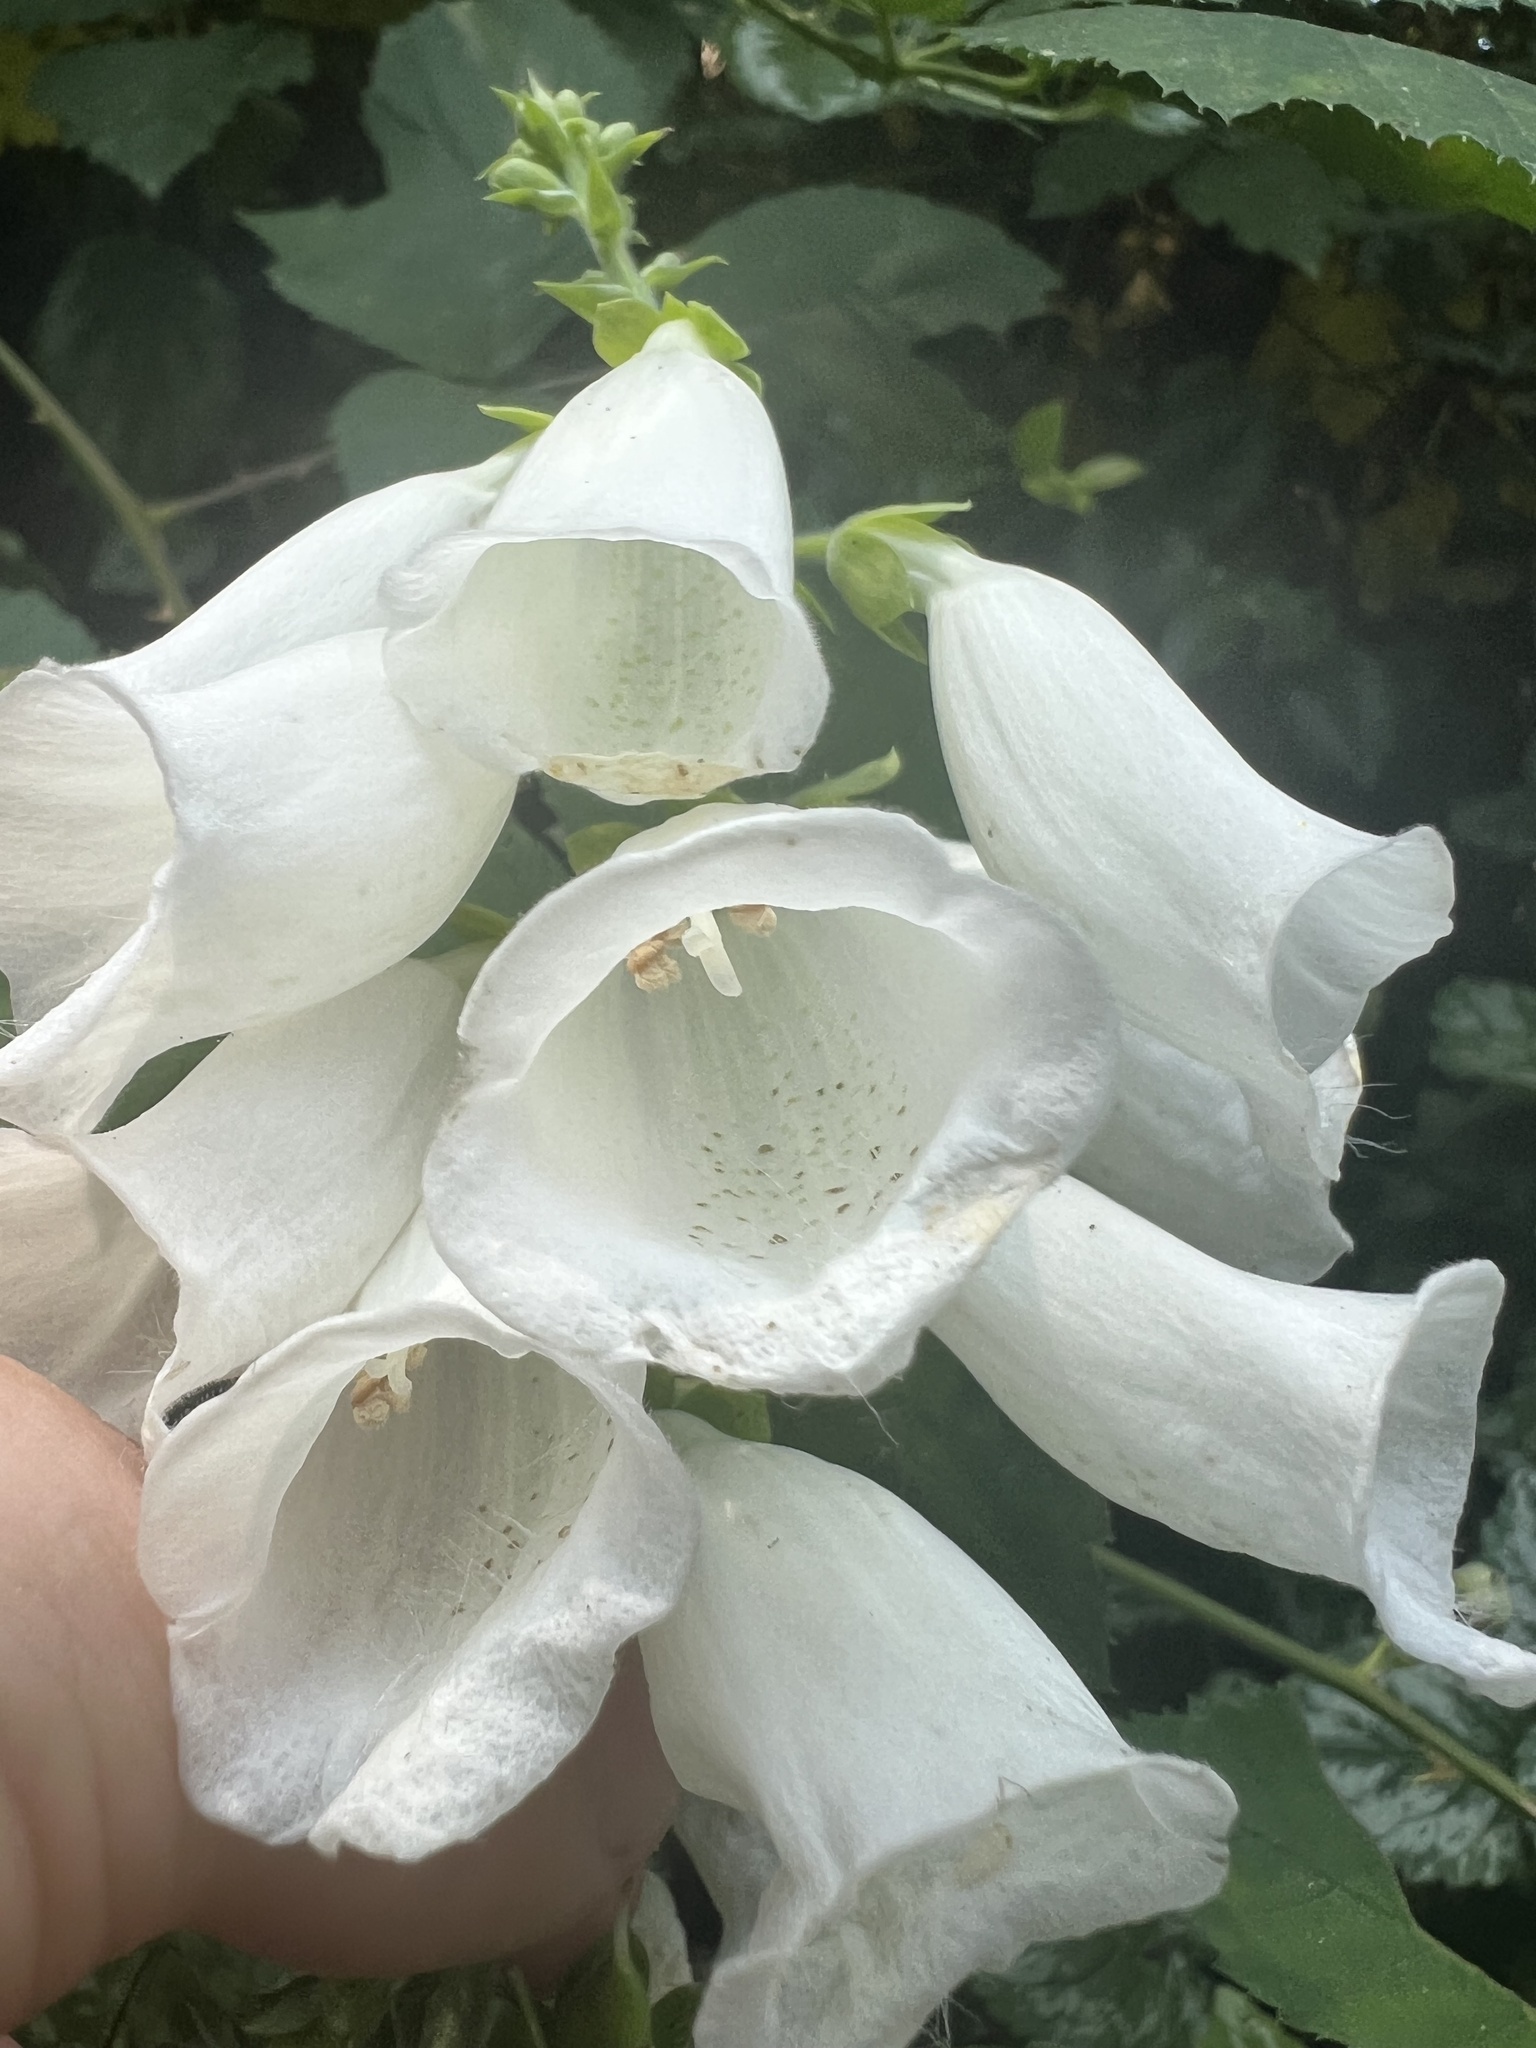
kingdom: Plantae
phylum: Tracheophyta
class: Magnoliopsida
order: Lamiales
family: Plantaginaceae
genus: Digitalis
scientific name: Digitalis purpurea
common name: Foxglove
